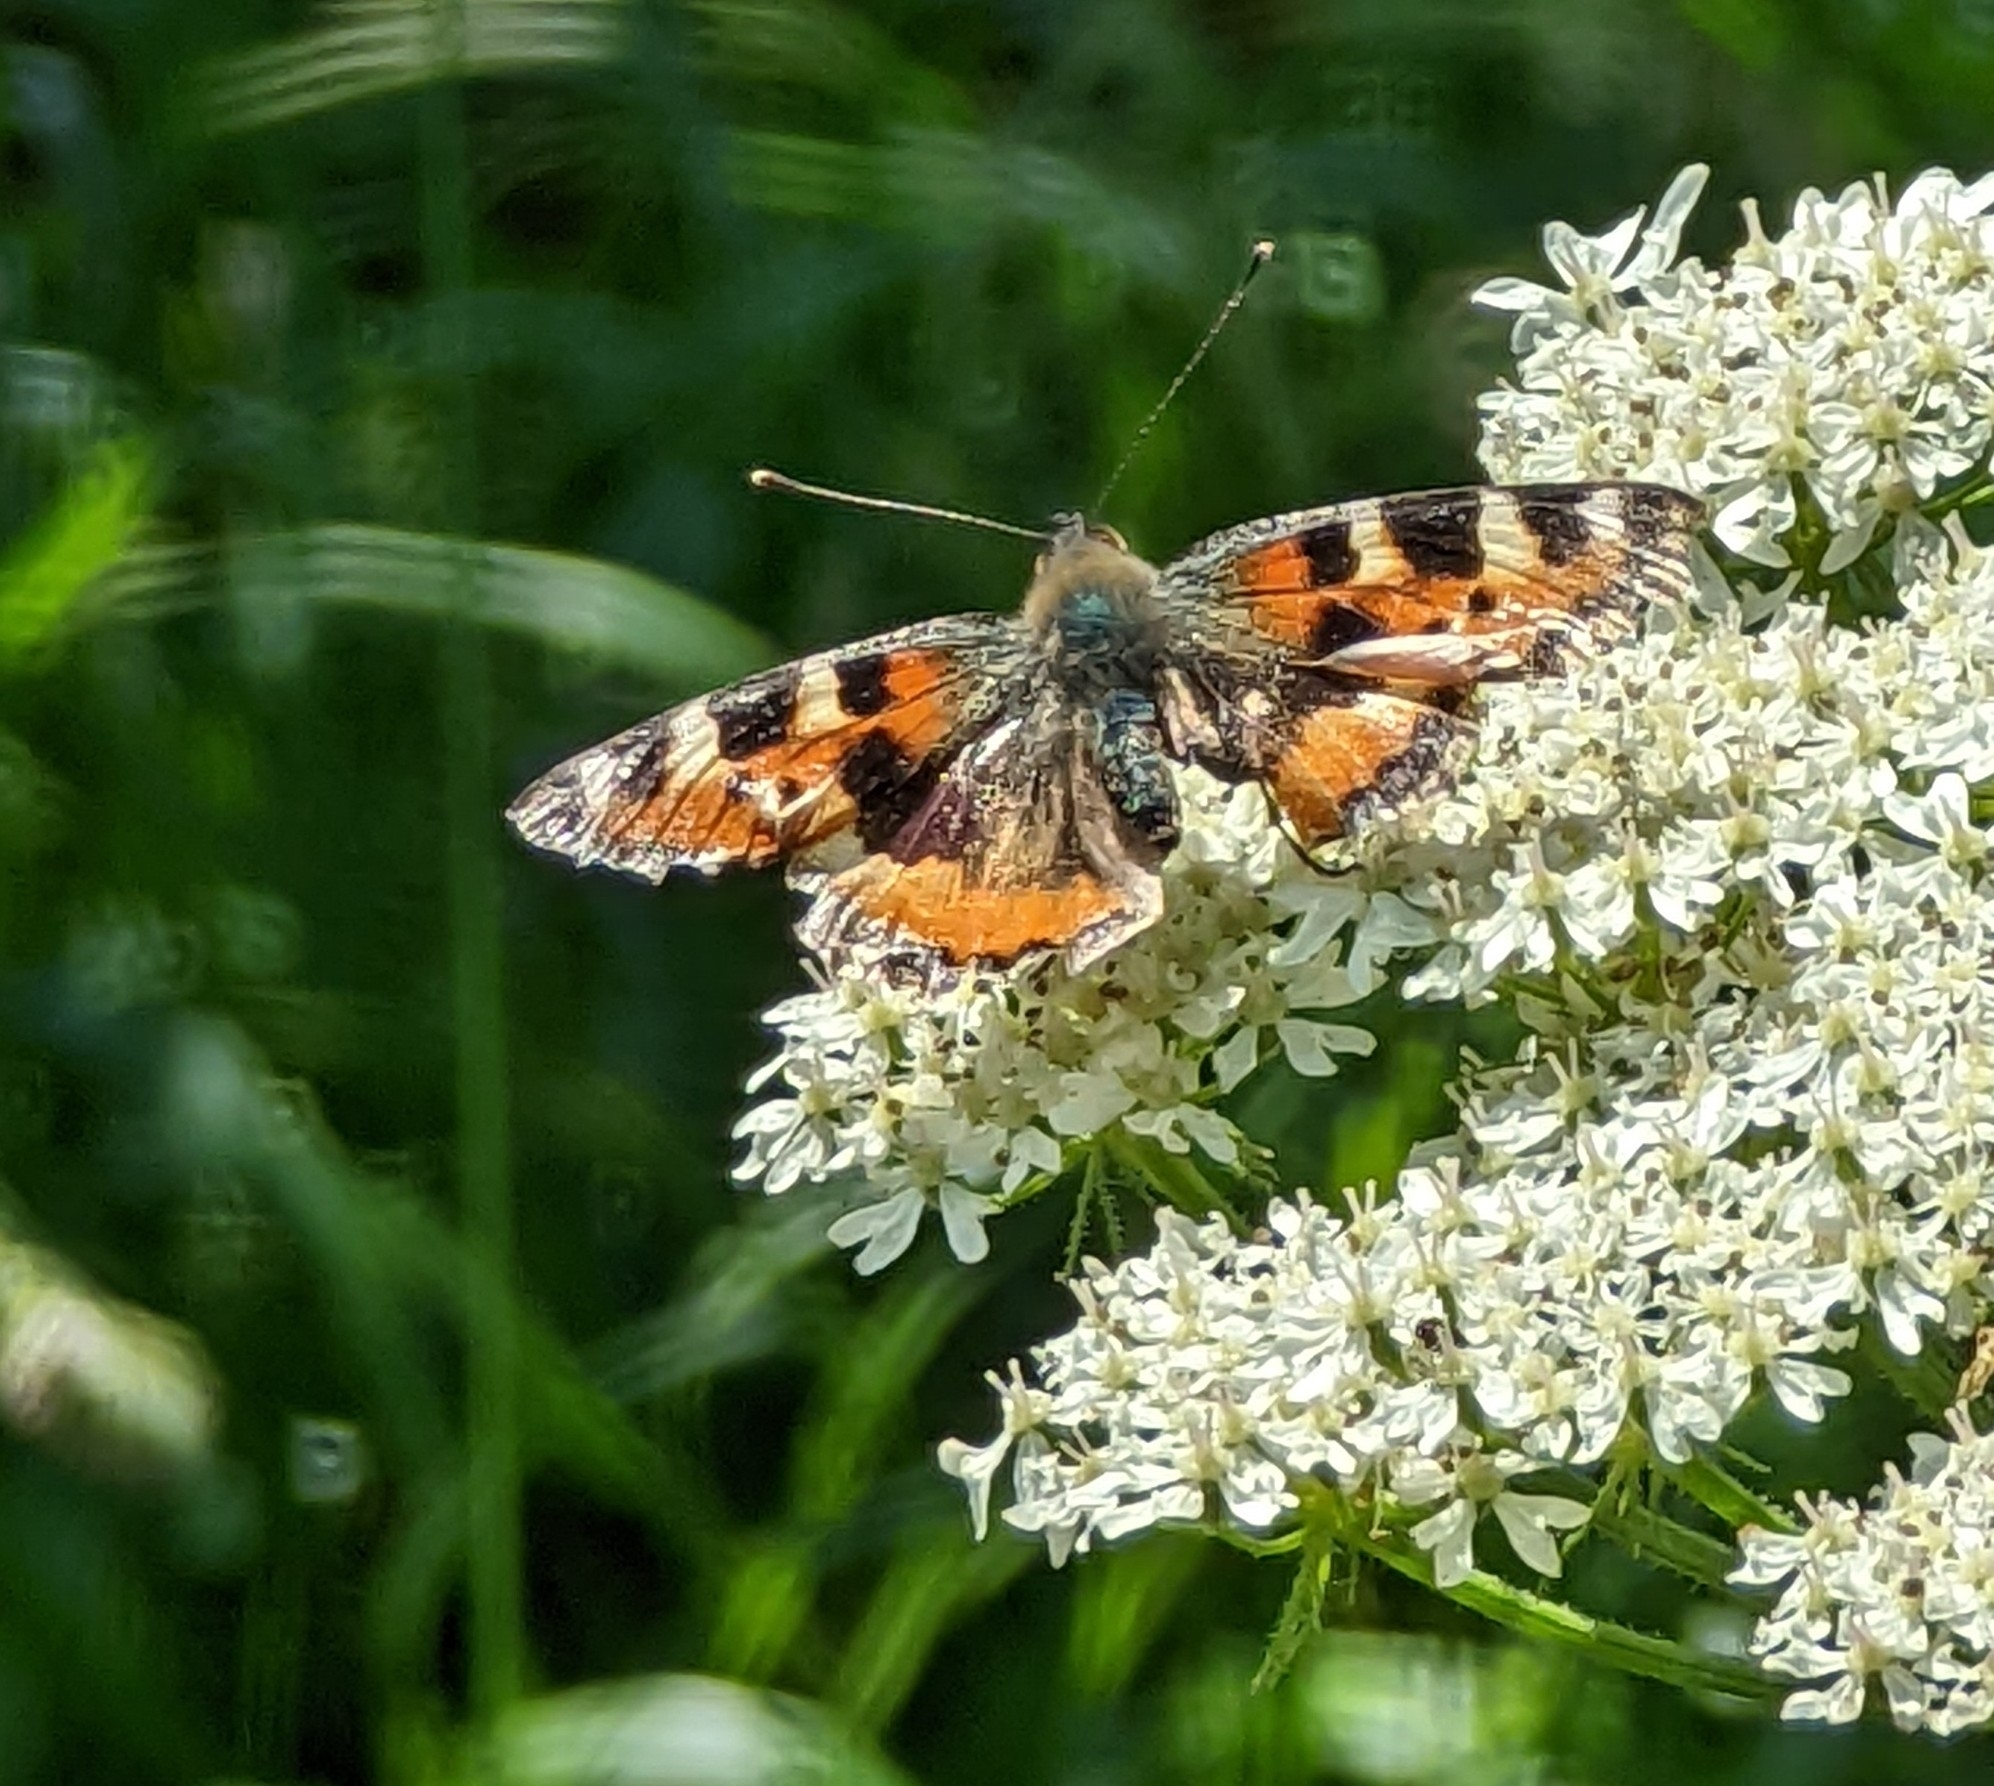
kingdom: Animalia
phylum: Arthropoda
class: Insecta
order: Lepidoptera
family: Nymphalidae
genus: Aglais
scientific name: Aglais urticae
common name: Small tortoiseshell
